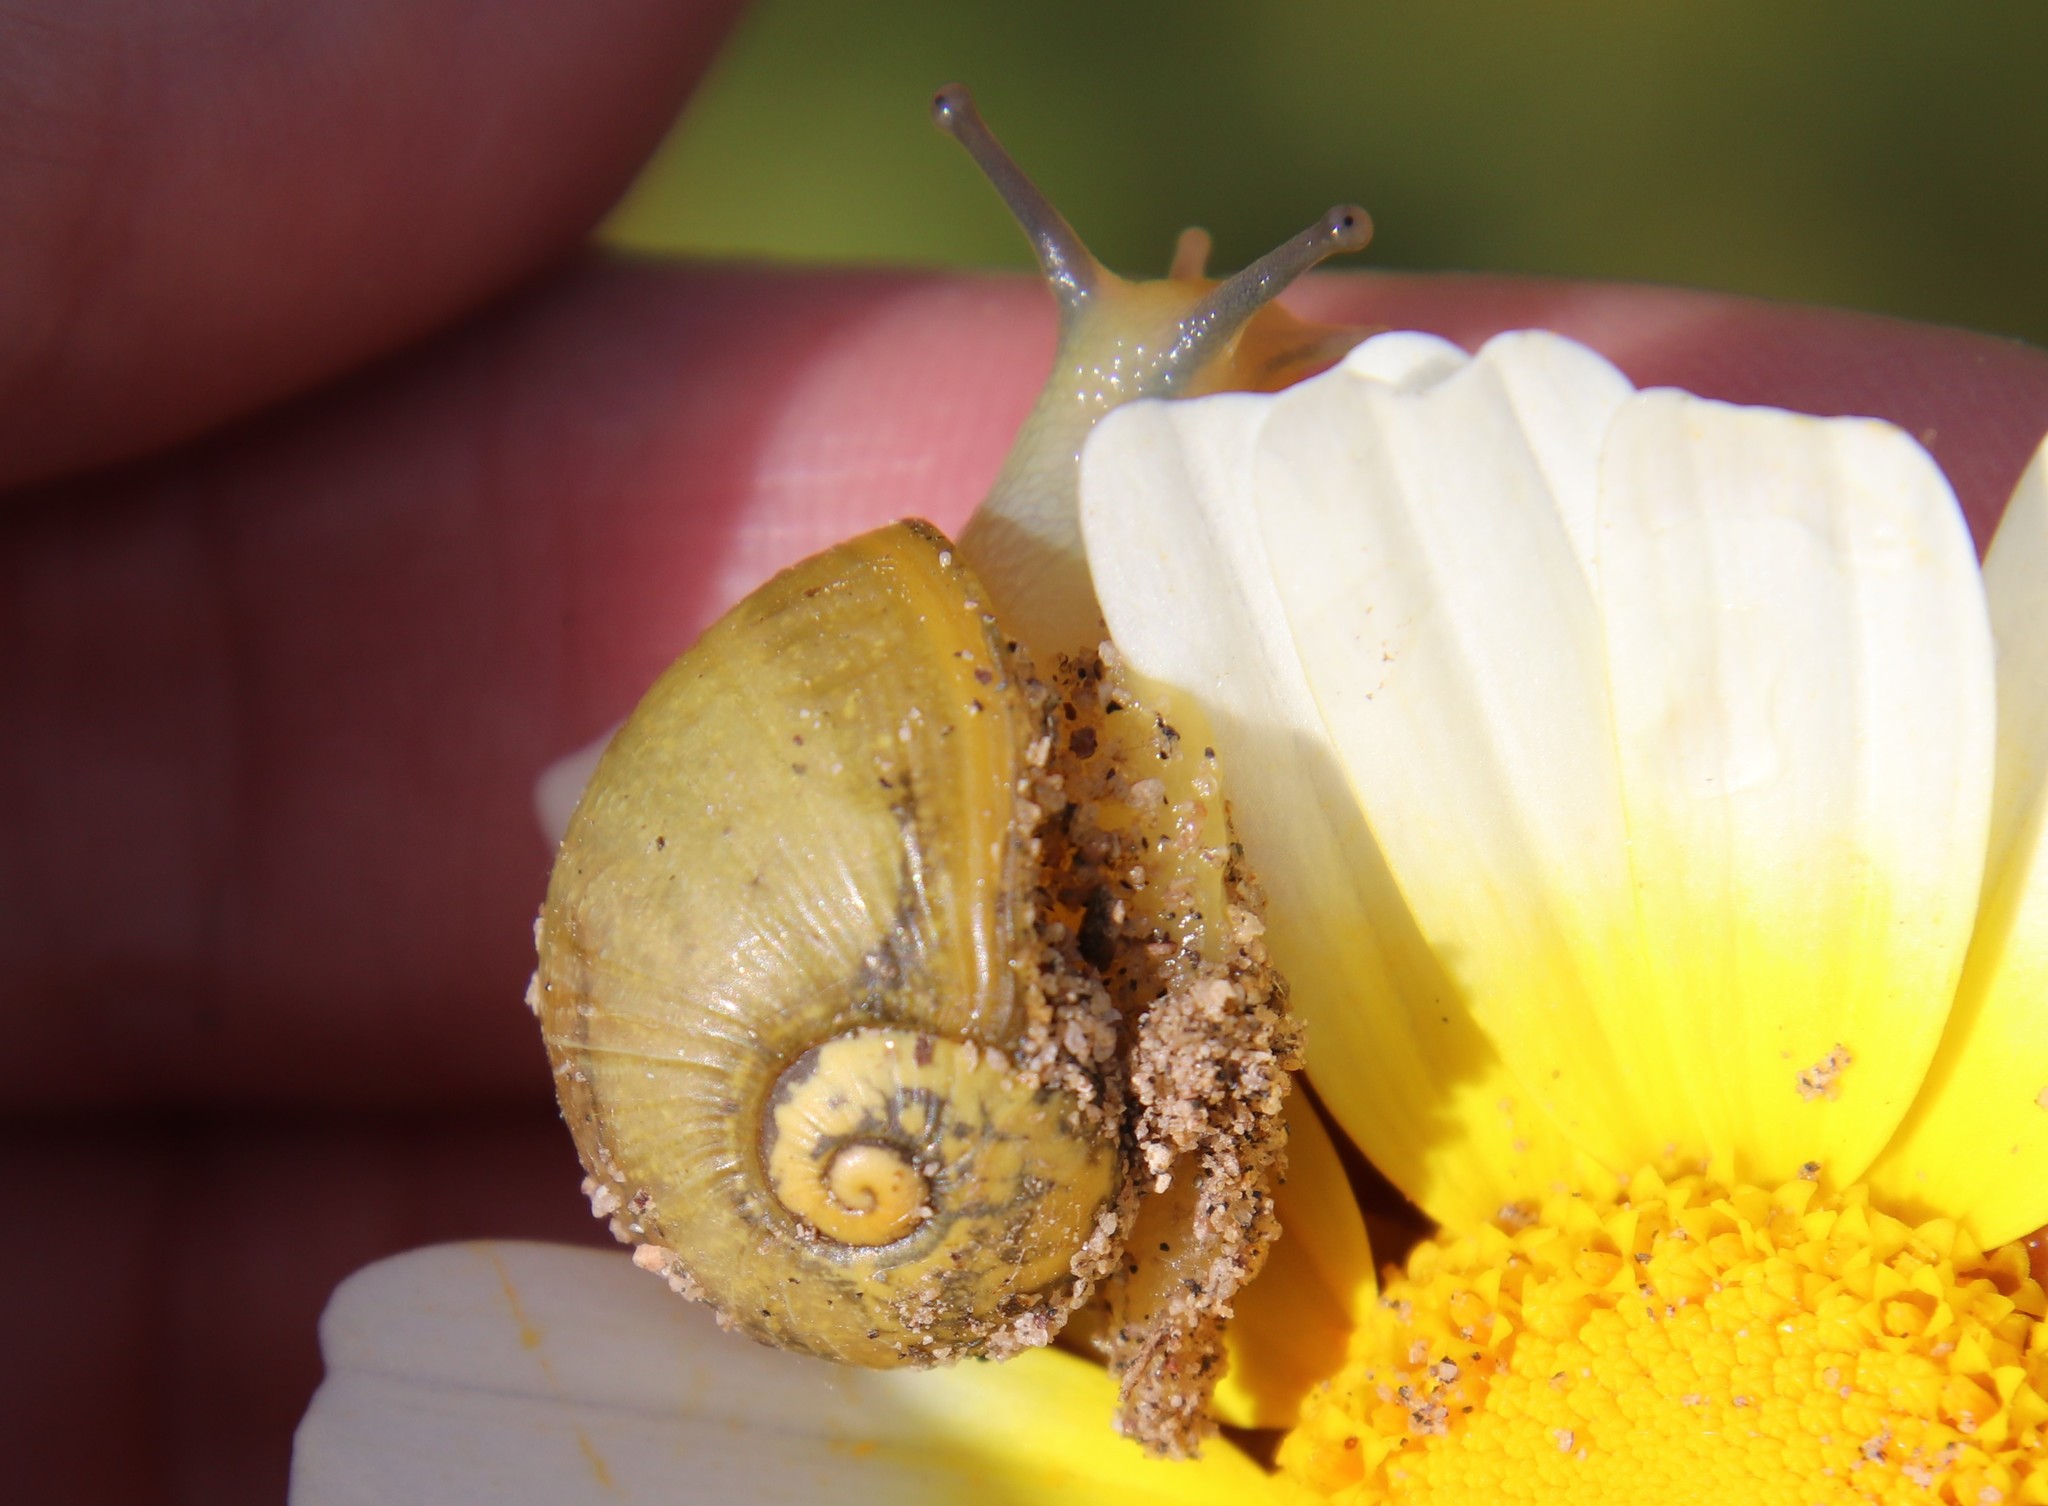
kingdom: Animalia
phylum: Mollusca
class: Gastropoda
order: Stylommatophora
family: Helicidae
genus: Cantareus
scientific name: Cantareus apertus
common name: Green gardensnail
